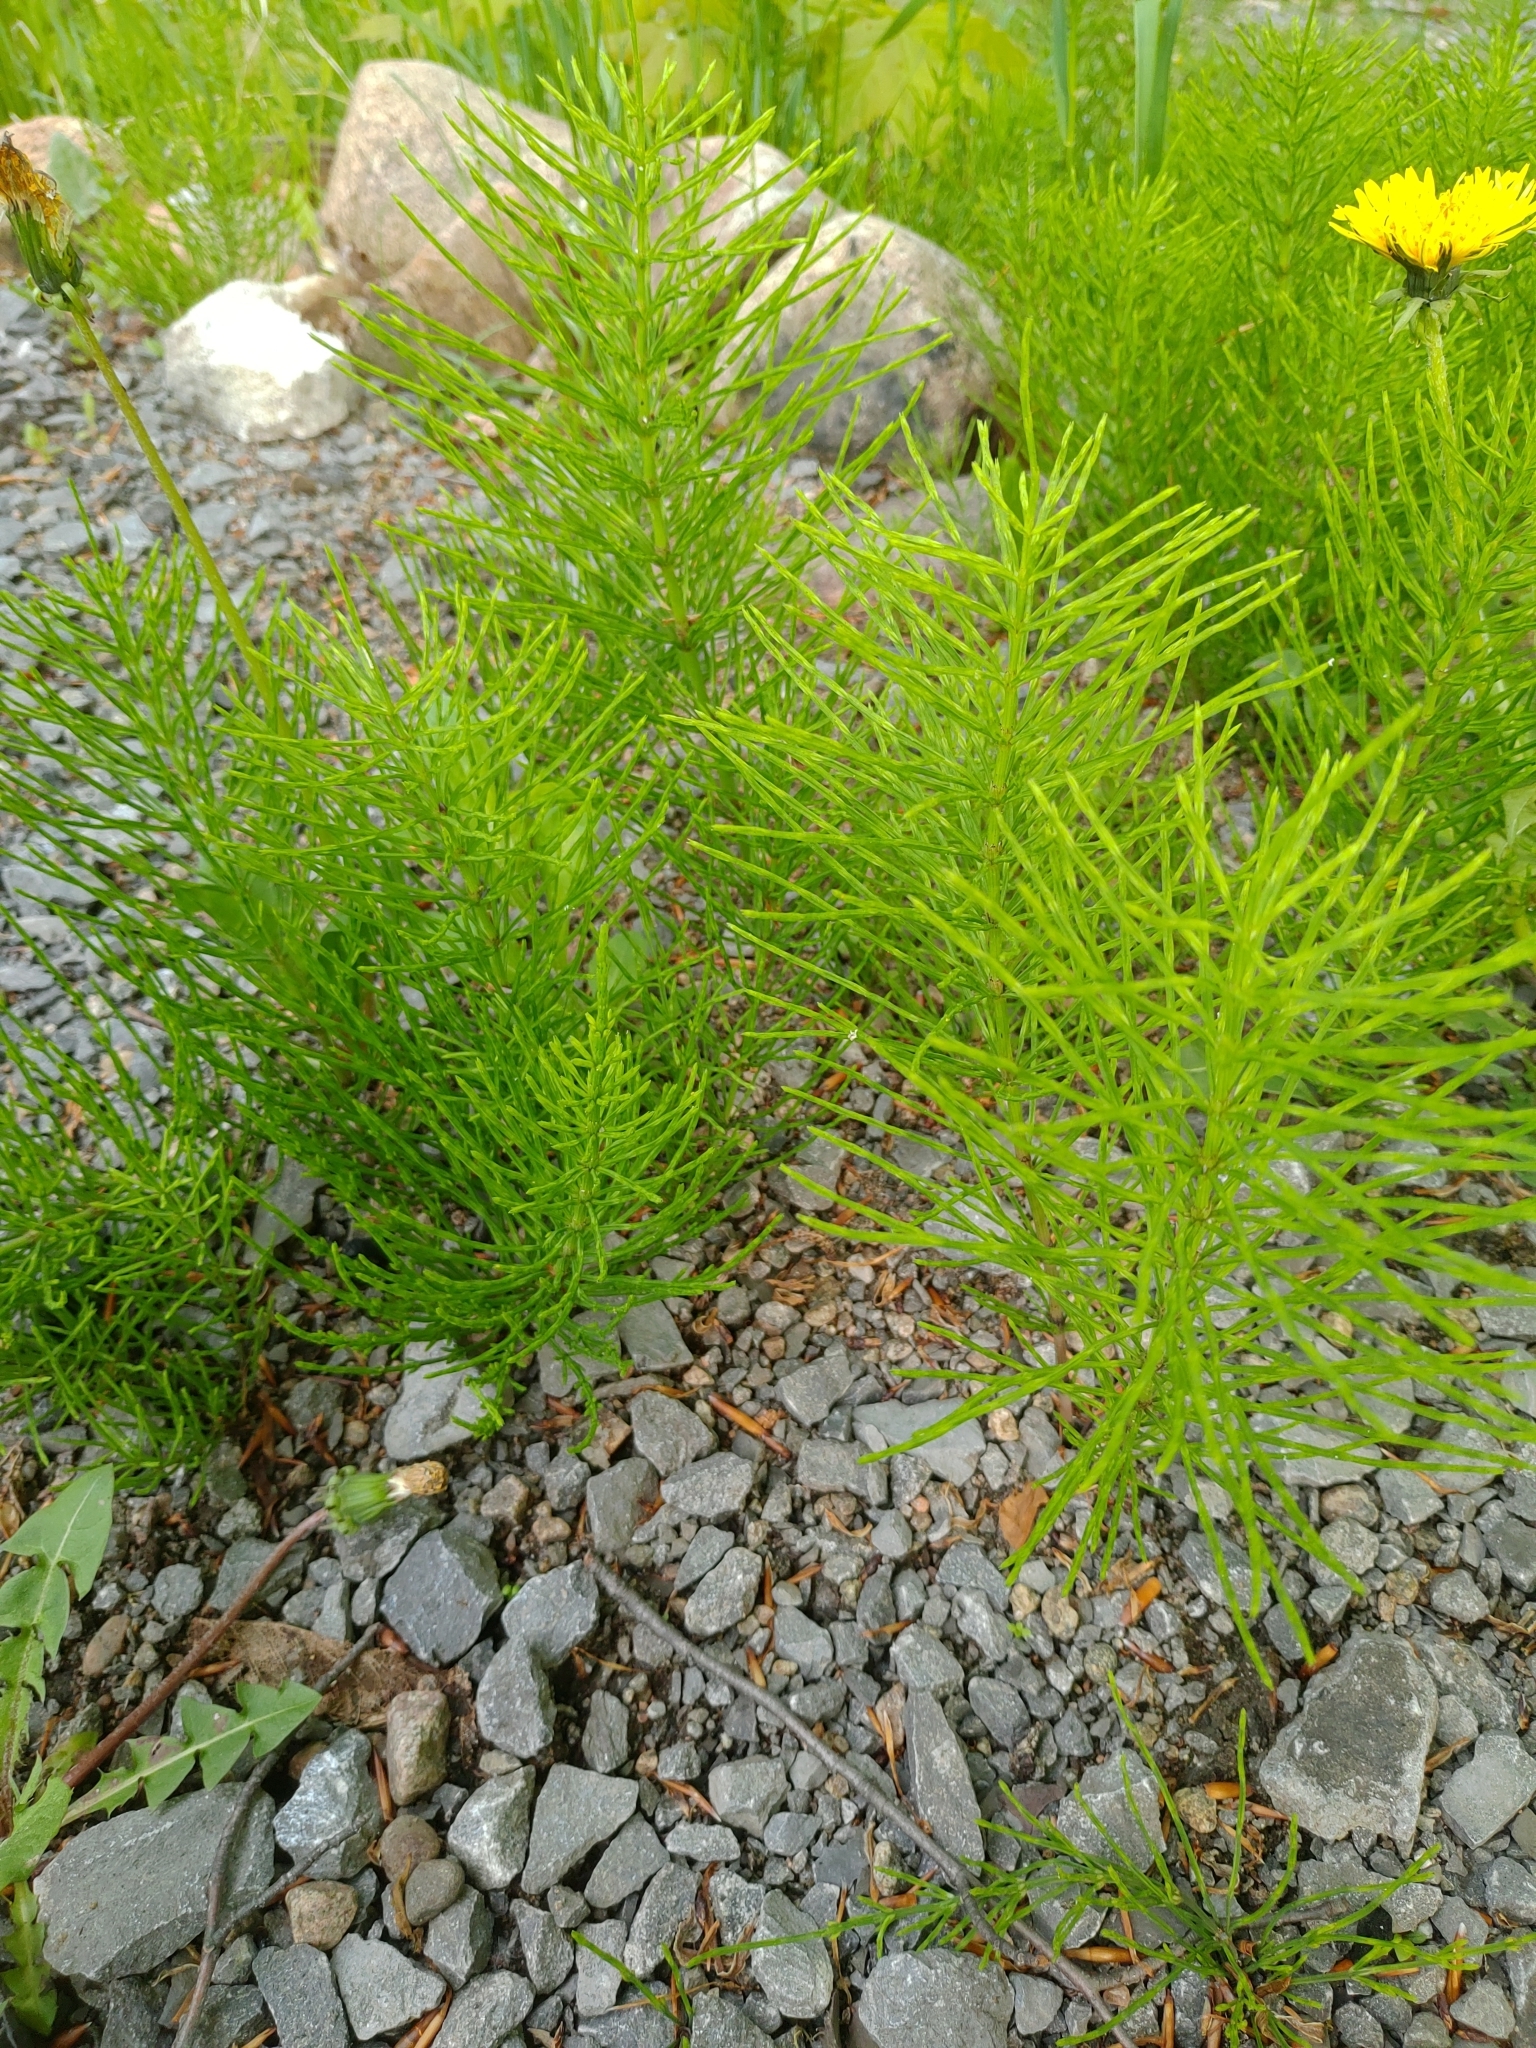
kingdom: Plantae
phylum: Tracheophyta
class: Polypodiopsida
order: Equisetales
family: Equisetaceae
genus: Equisetum
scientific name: Equisetum arvense
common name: Field horsetail
